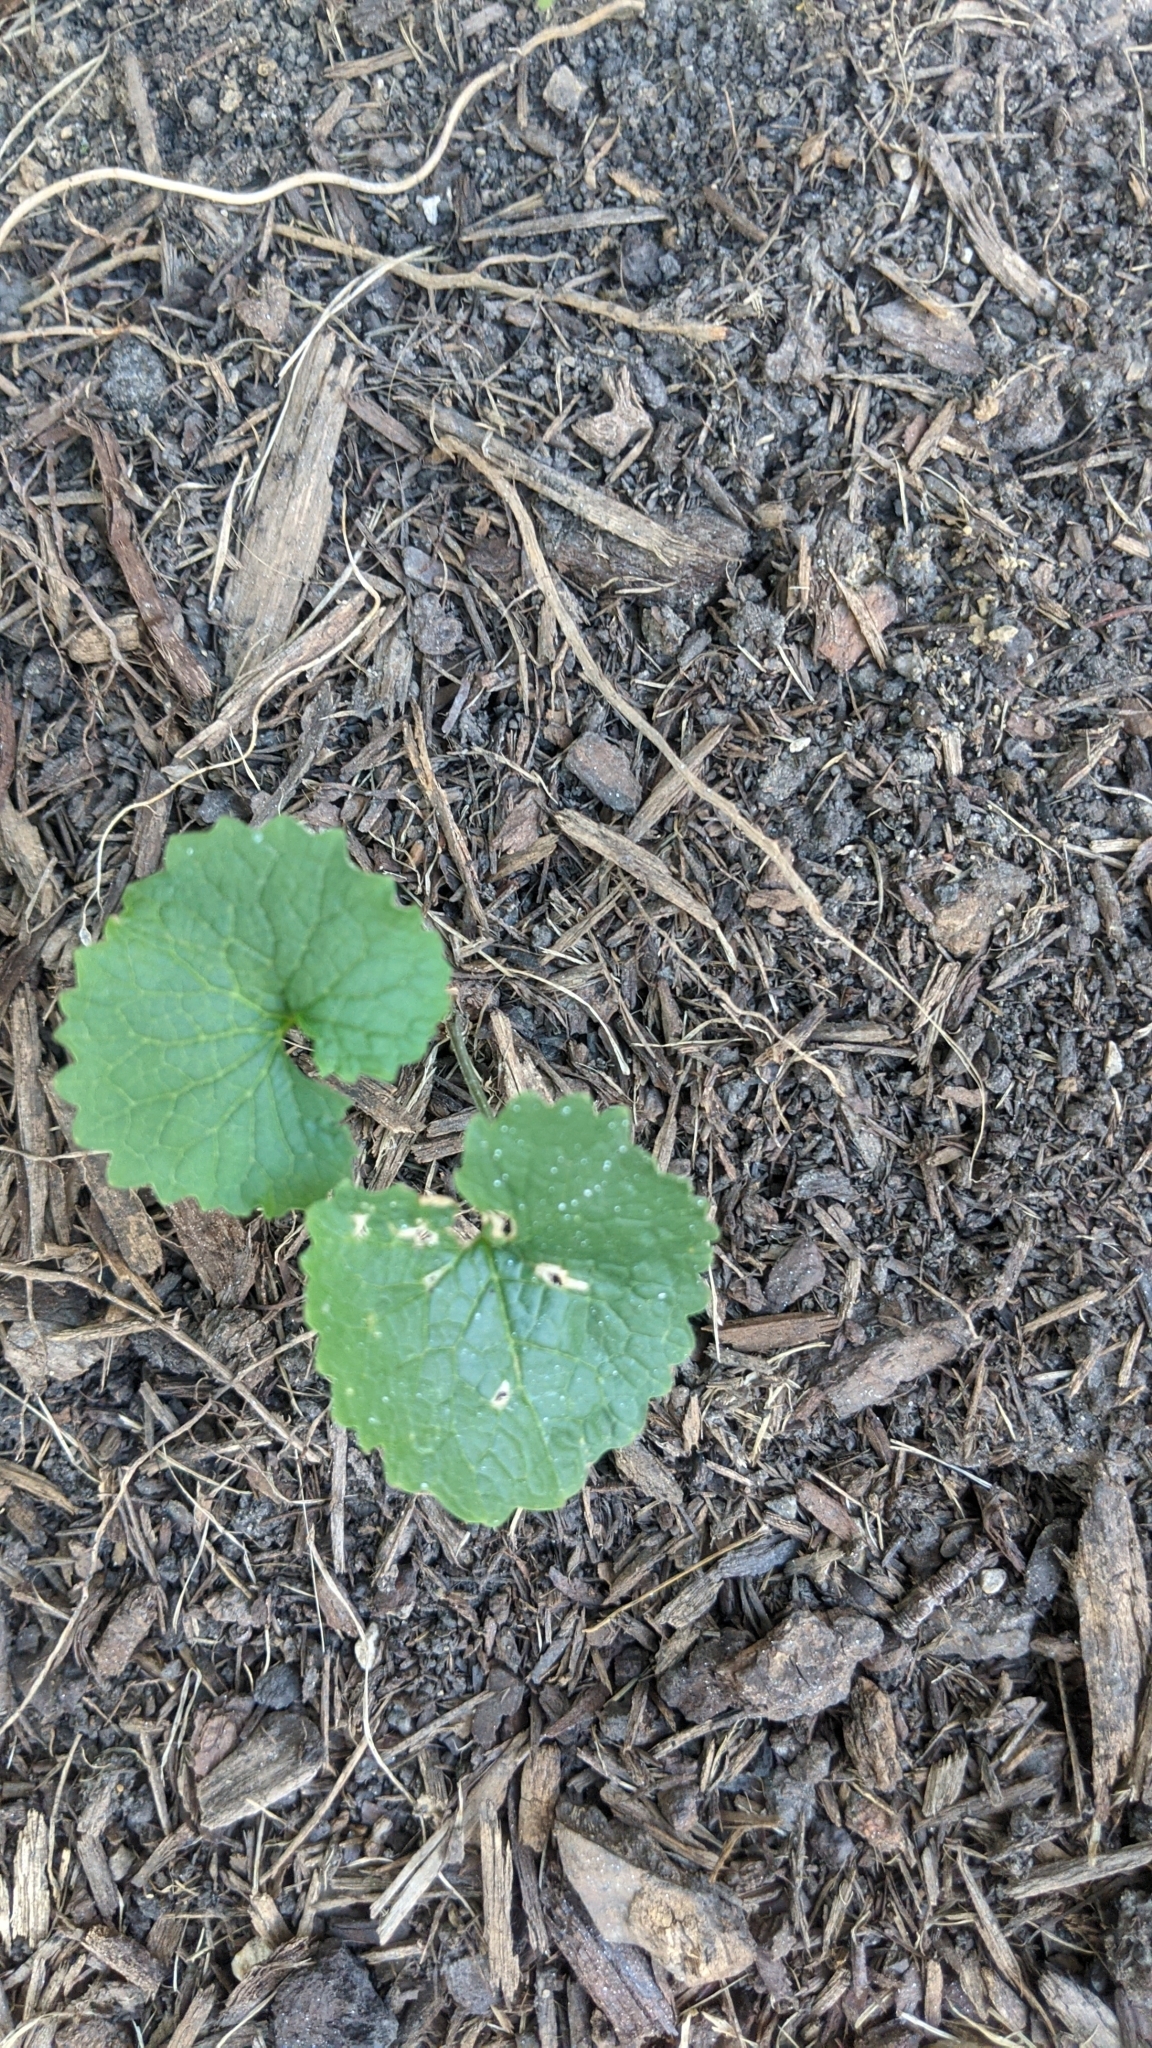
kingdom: Plantae
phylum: Tracheophyta
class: Magnoliopsida
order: Brassicales
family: Brassicaceae
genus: Alliaria
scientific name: Alliaria petiolata
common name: Garlic mustard
